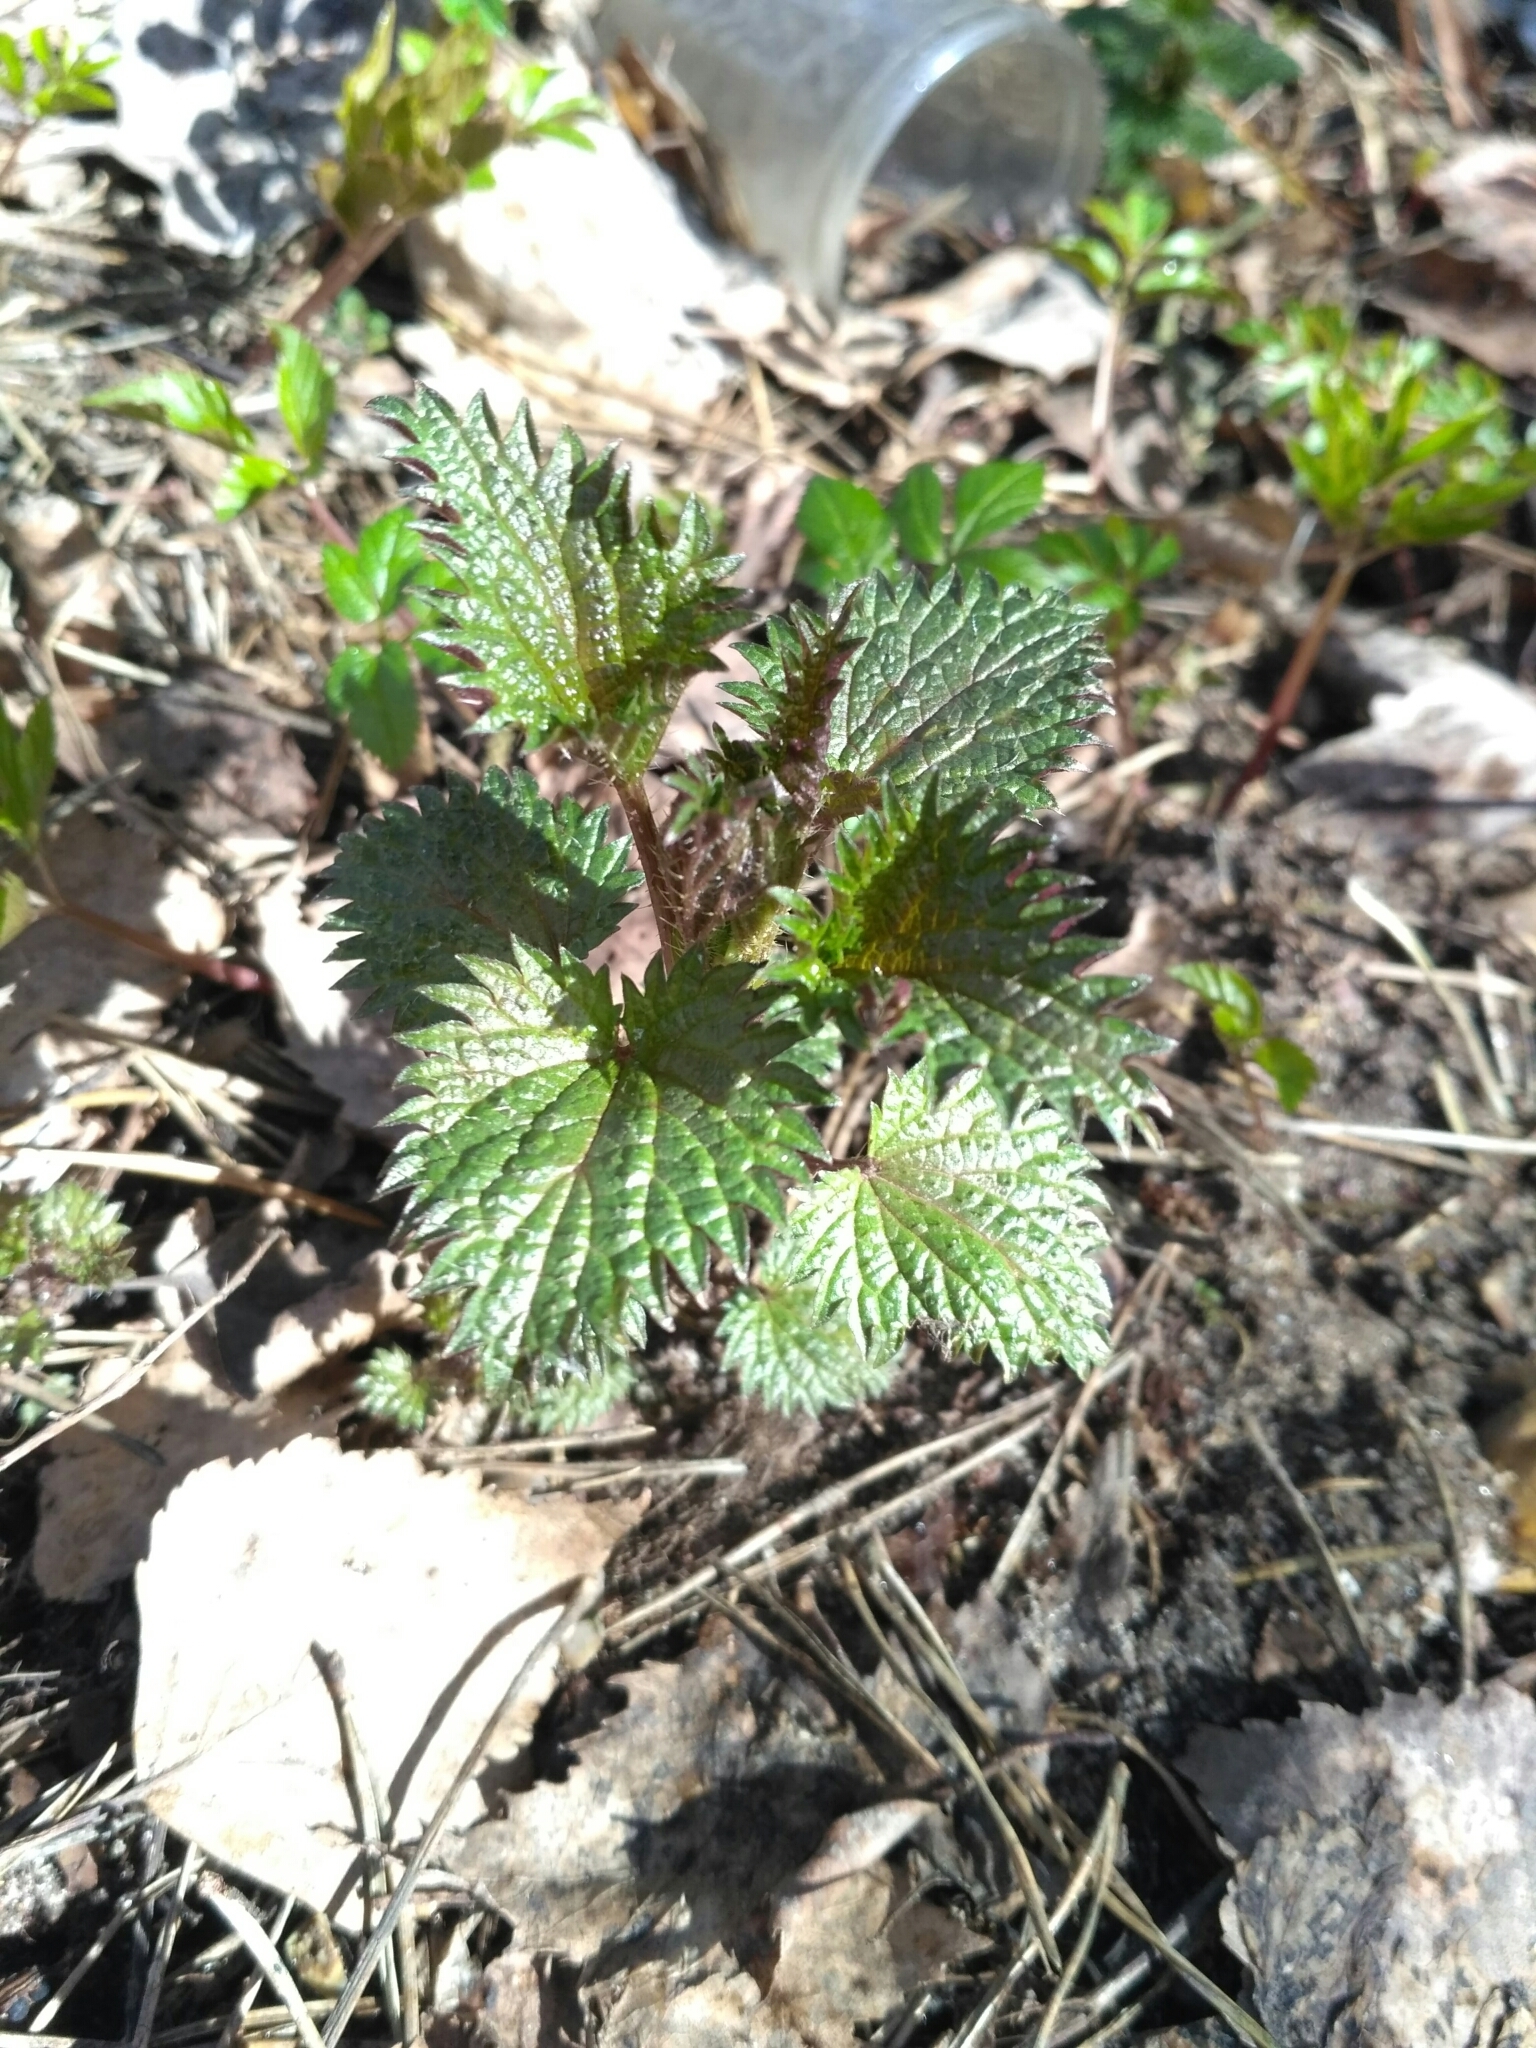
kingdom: Plantae
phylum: Tracheophyta
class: Magnoliopsida
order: Rosales
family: Urticaceae
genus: Urtica
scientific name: Urtica dioica
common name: Common nettle
